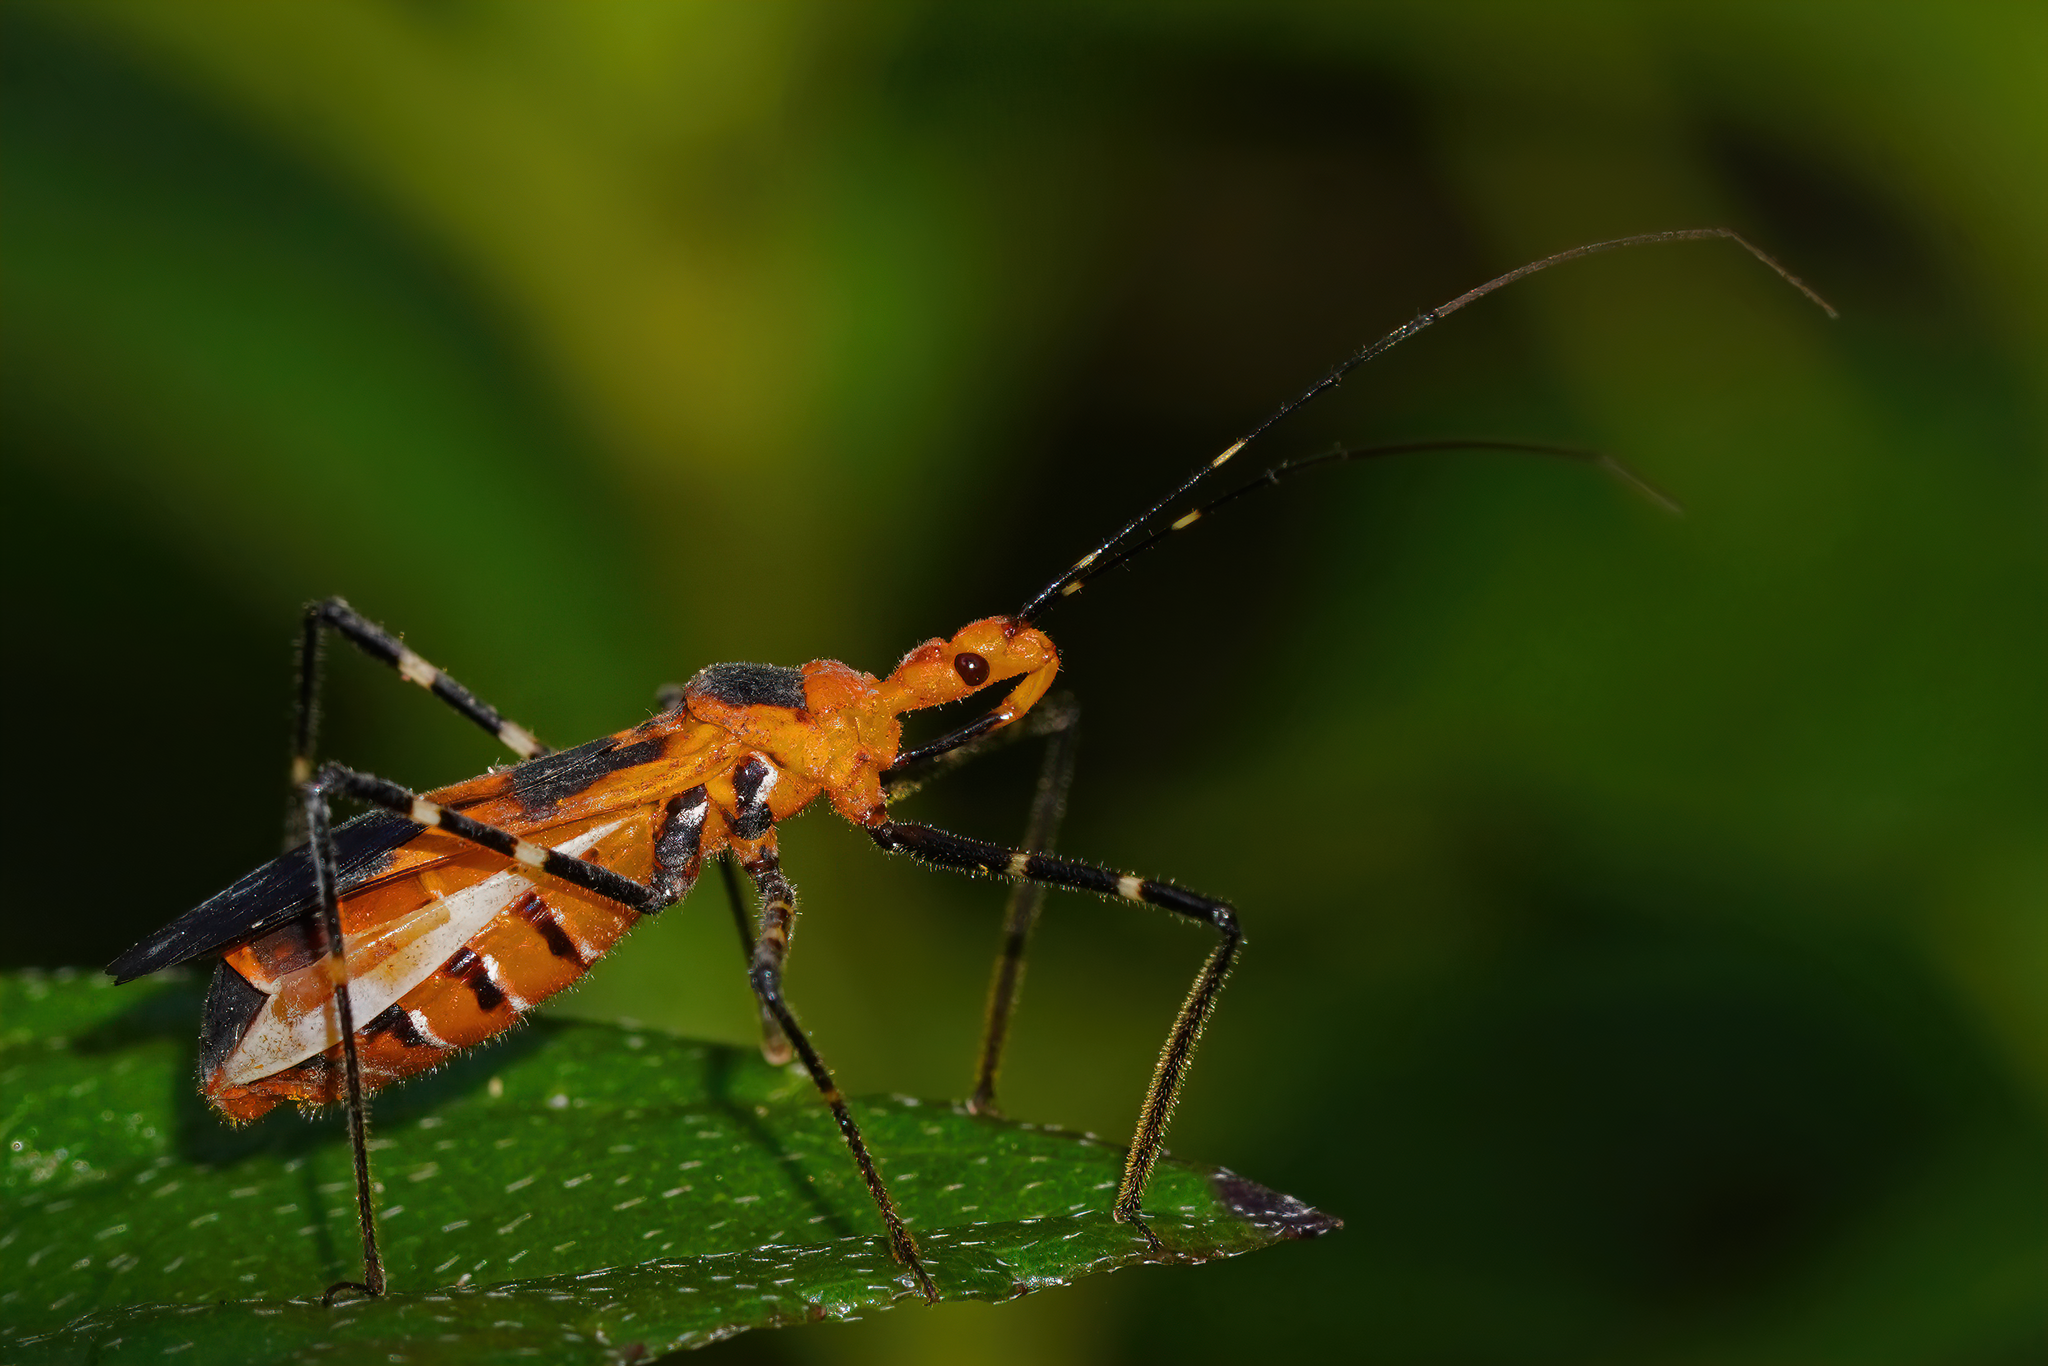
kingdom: Animalia
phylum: Arthropoda
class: Insecta
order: Hemiptera
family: Reduviidae
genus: Zelus
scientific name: Zelus longipes
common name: Milkweed assassin bug
